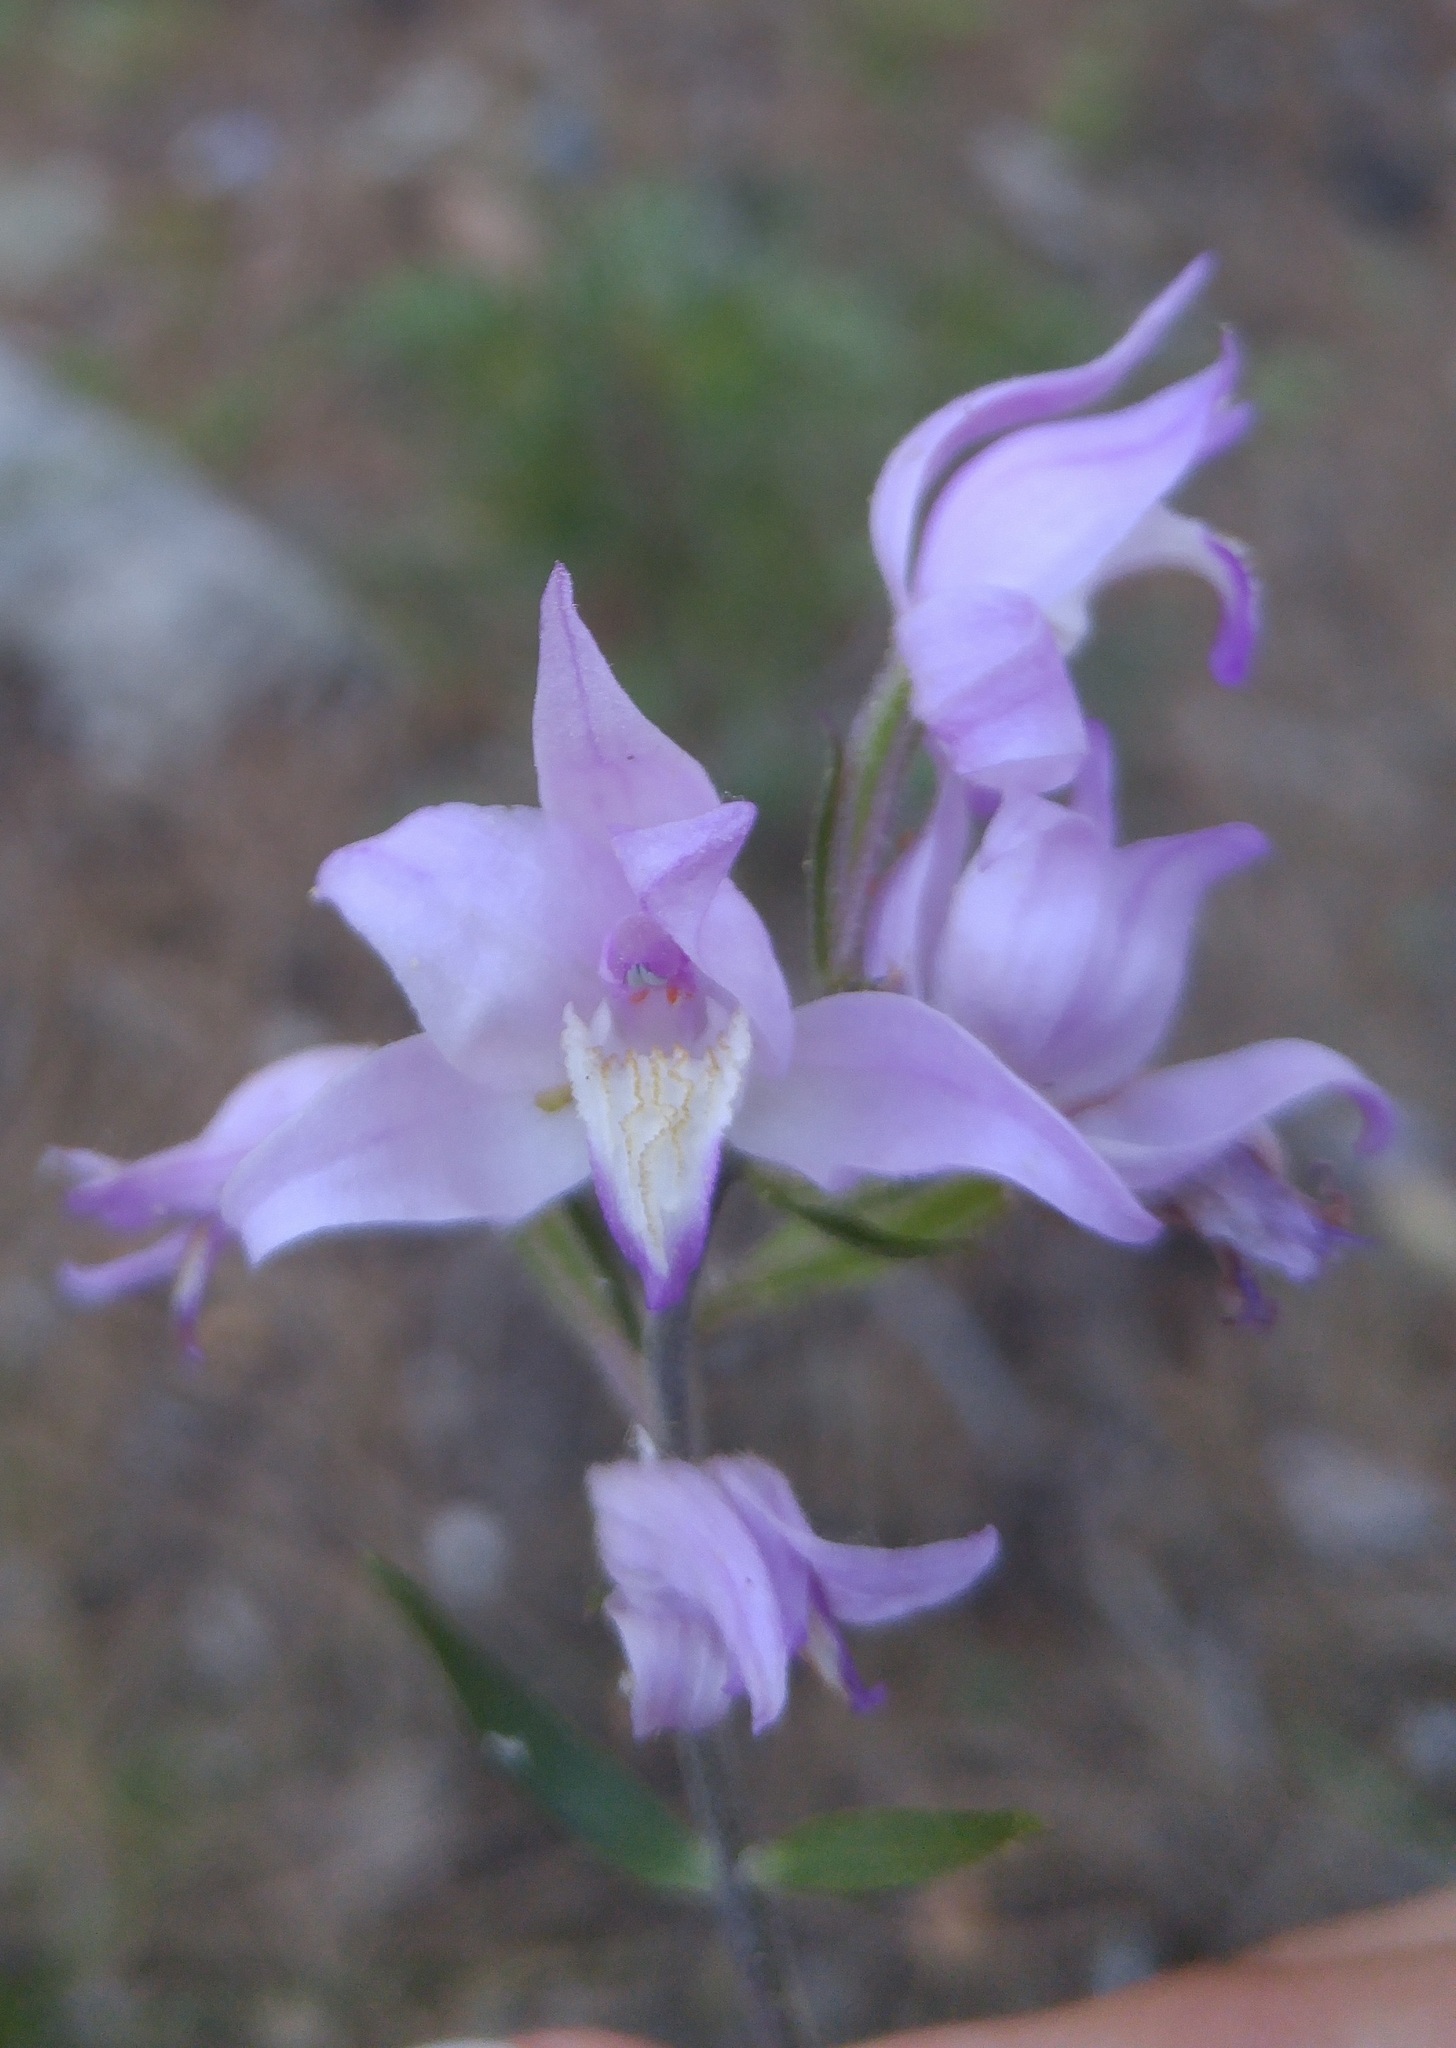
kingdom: Plantae
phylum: Tracheophyta
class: Liliopsida
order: Asparagales
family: Orchidaceae
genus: Cephalanthera
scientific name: Cephalanthera rubra
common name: Red helleborine
